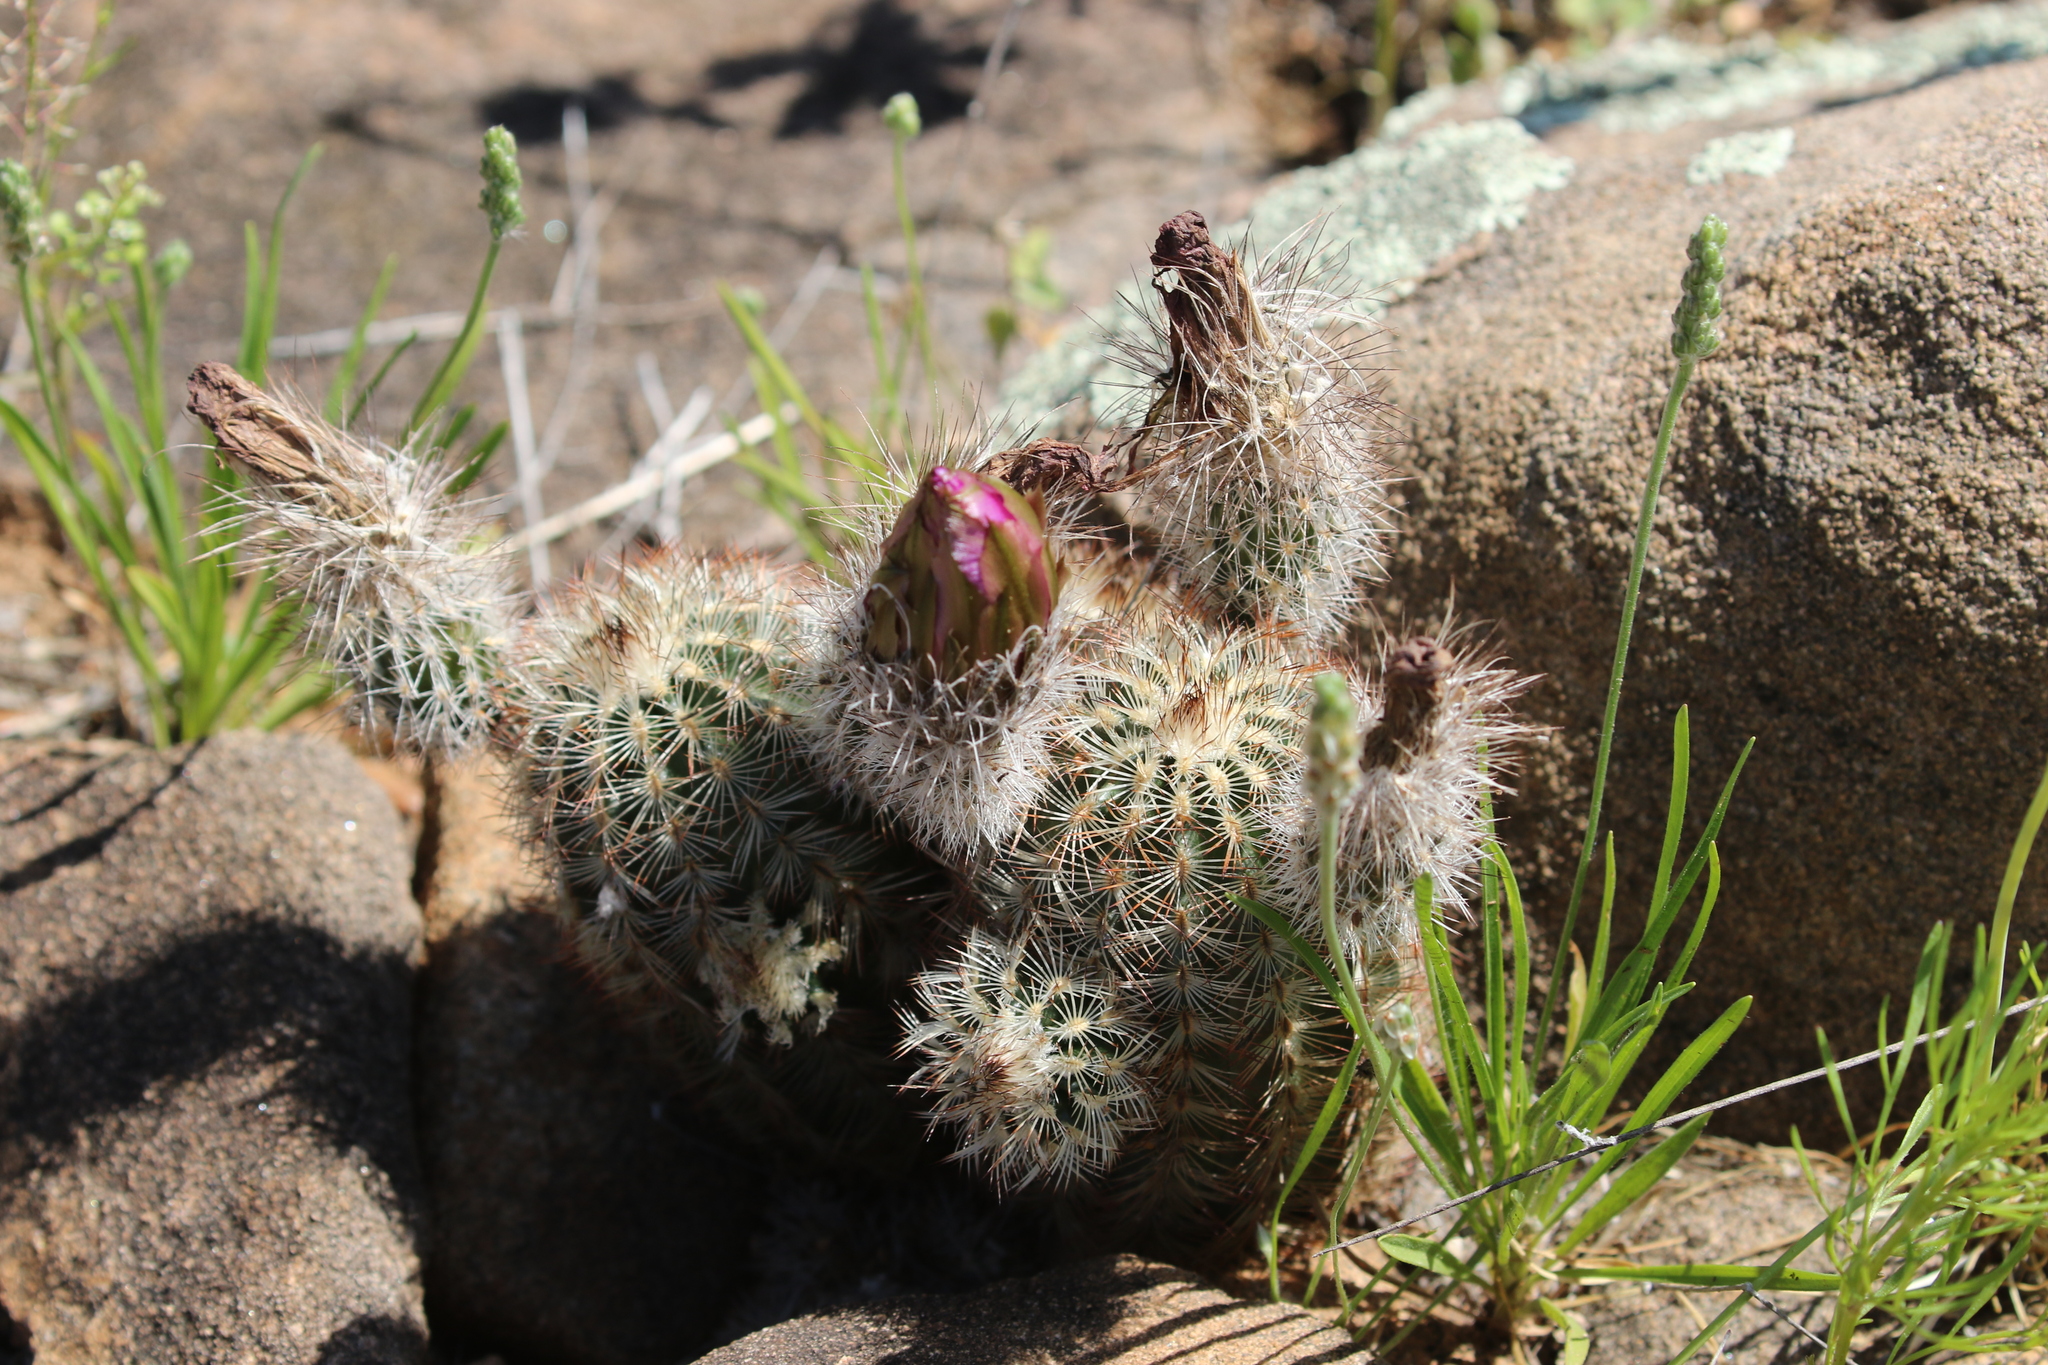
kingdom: Plantae
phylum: Tracheophyta
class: Magnoliopsida
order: Caryophyllales
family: Cactaceae
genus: Echinocereus
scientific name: Echinocereus reichenbachii
